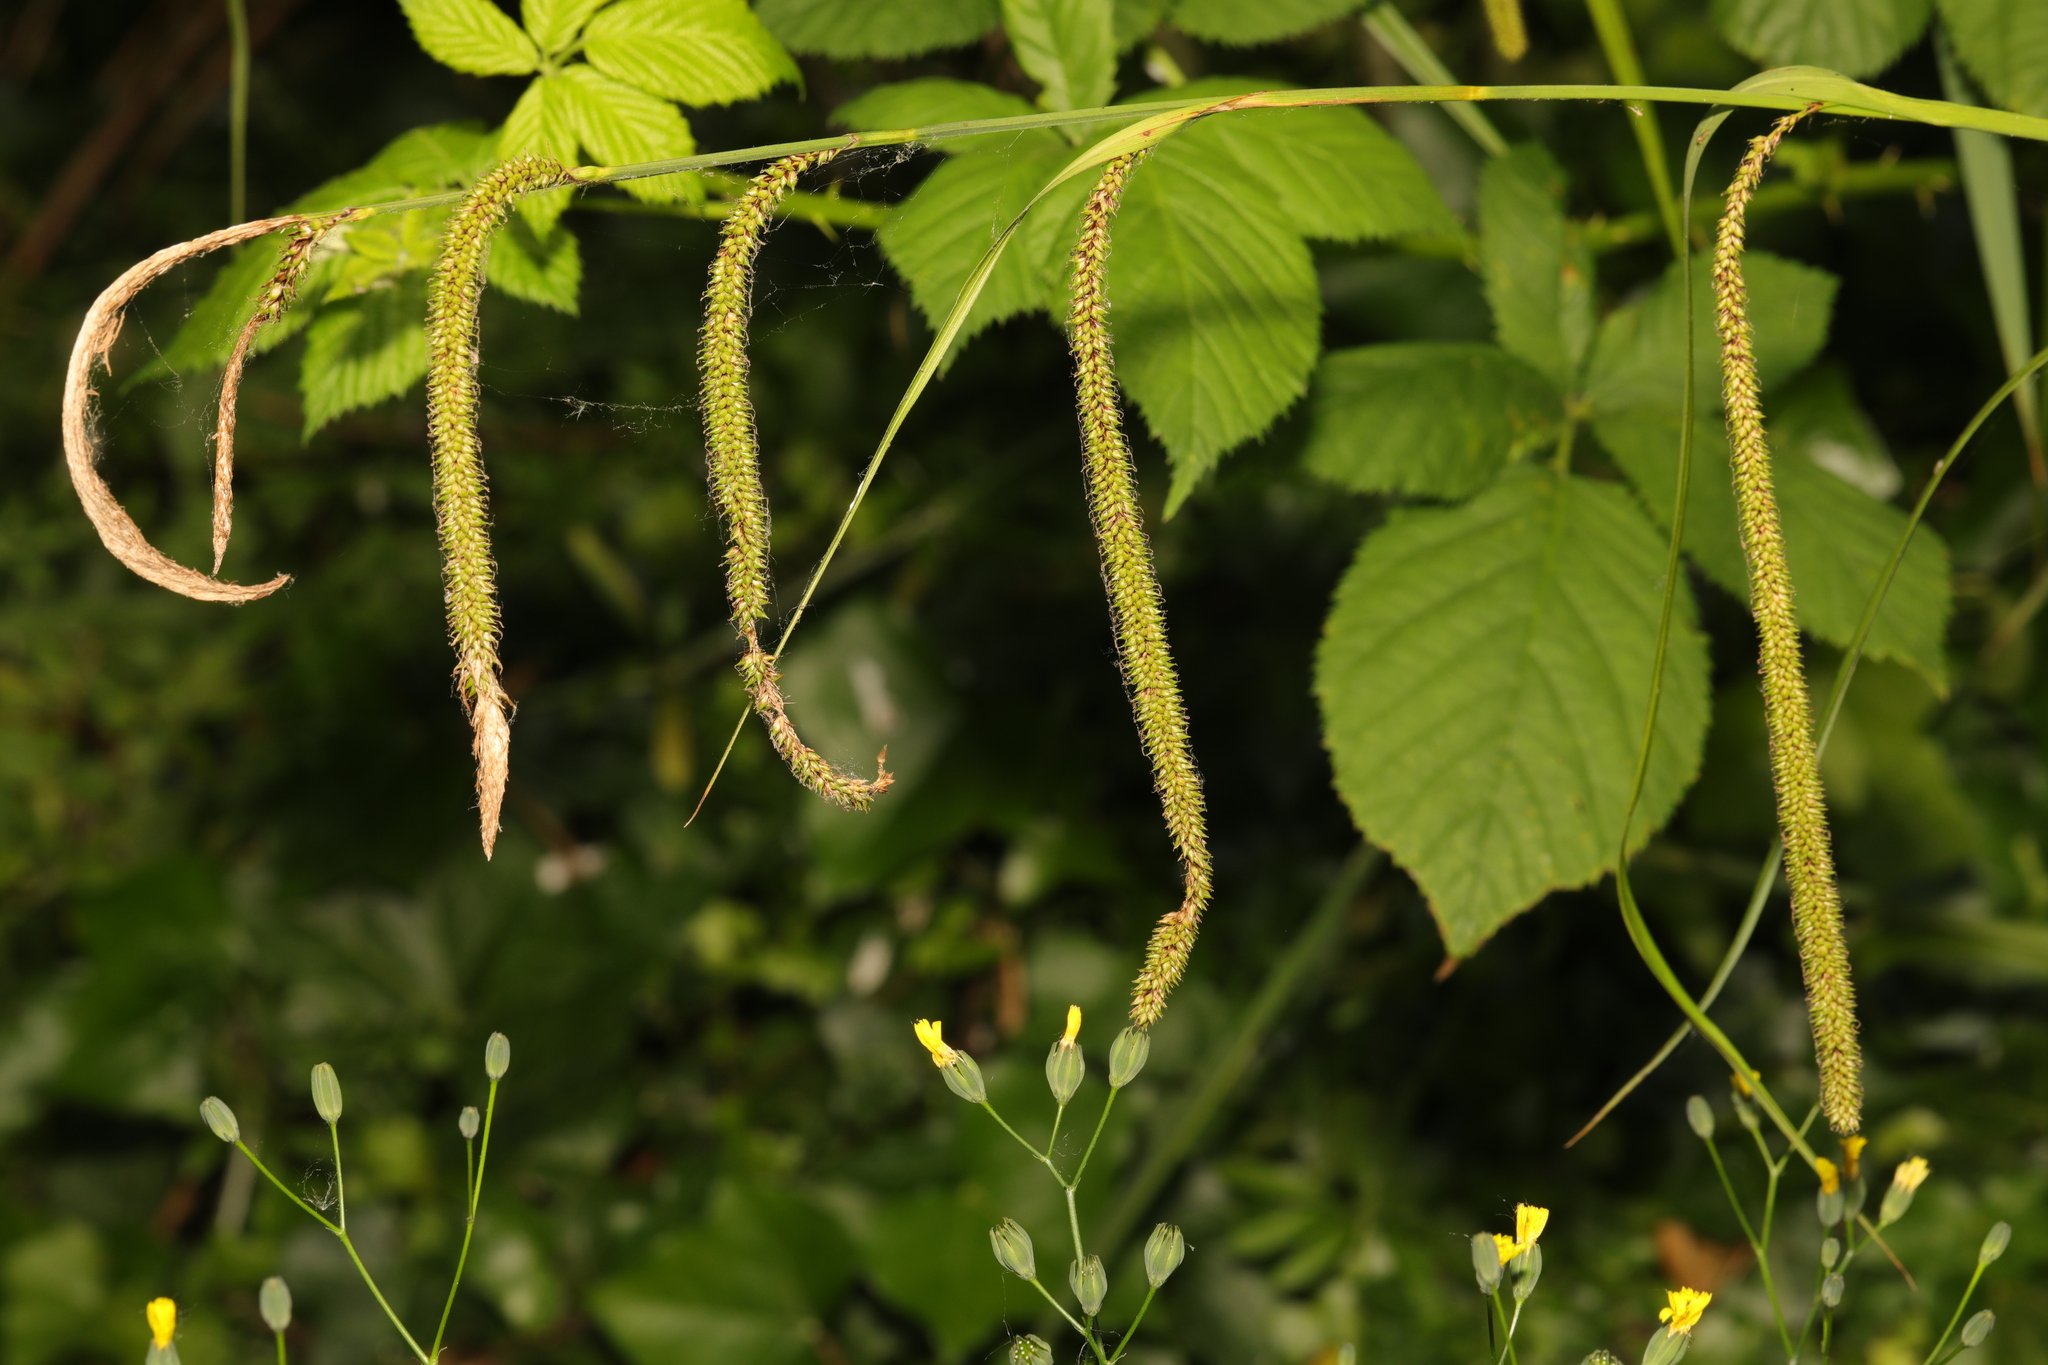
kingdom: Plantae
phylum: Tracheophyta
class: Liliopsida
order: Poales
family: Cyperaceae
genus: Carex
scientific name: Carex pendula
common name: Pendulous sedge
